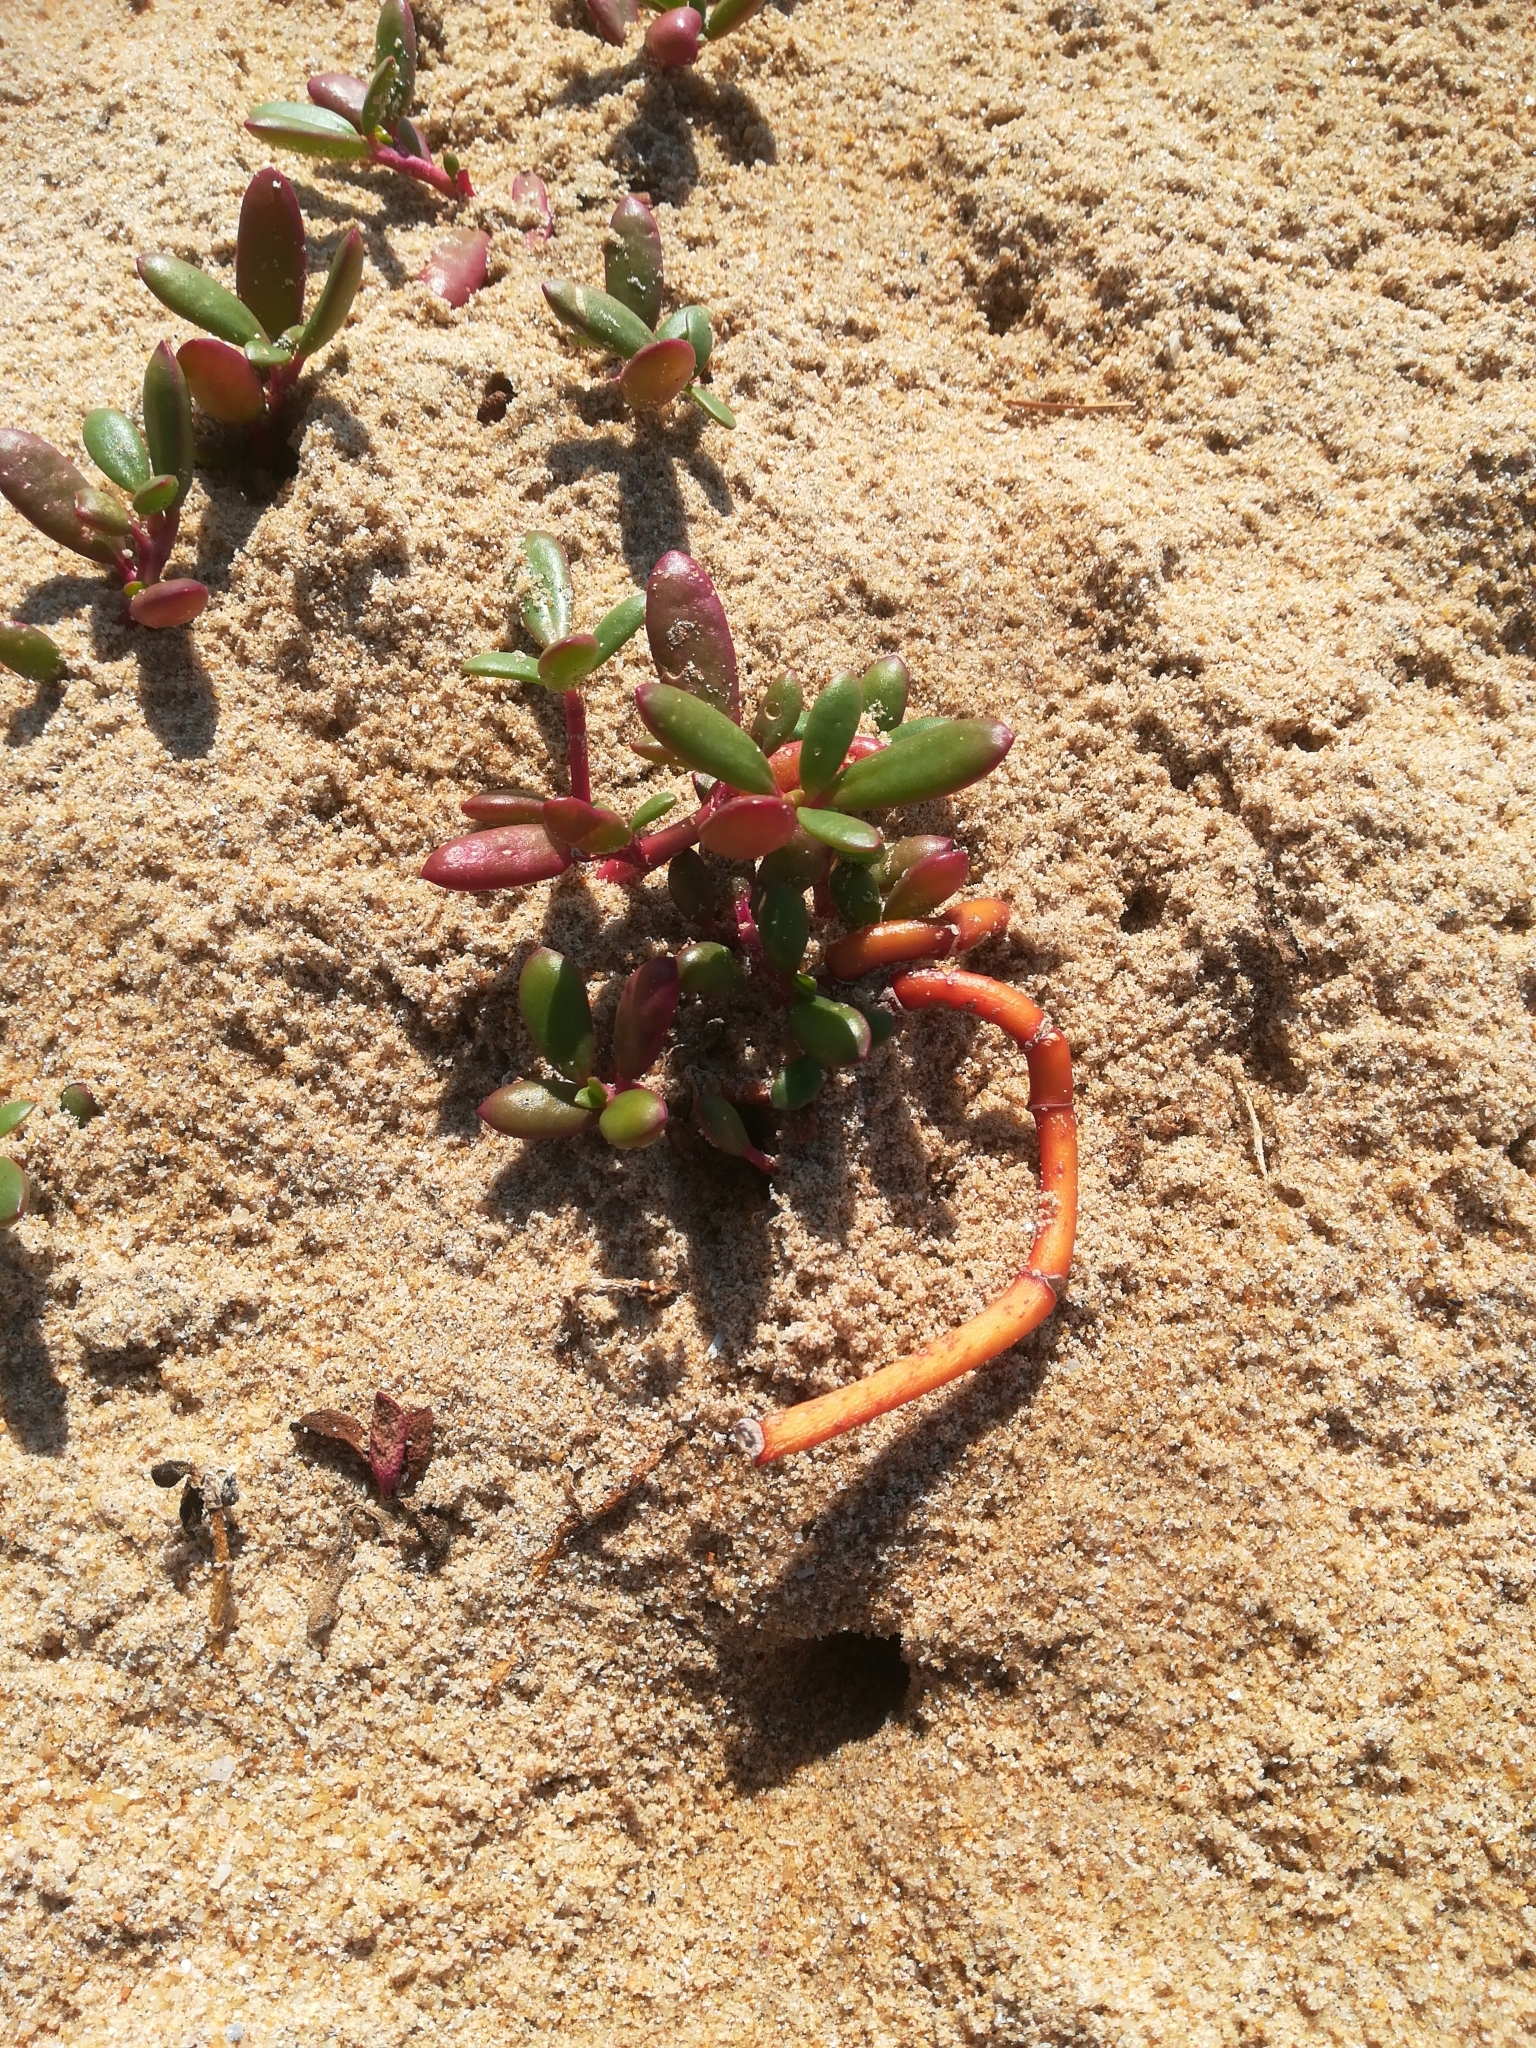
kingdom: Plantae
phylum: Tracheophyta
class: Magnoliopsida
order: Caryophyllales
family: Aizoaceae
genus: Sesuvium
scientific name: Sesuvium portulacastrum
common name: Sea-purslane
